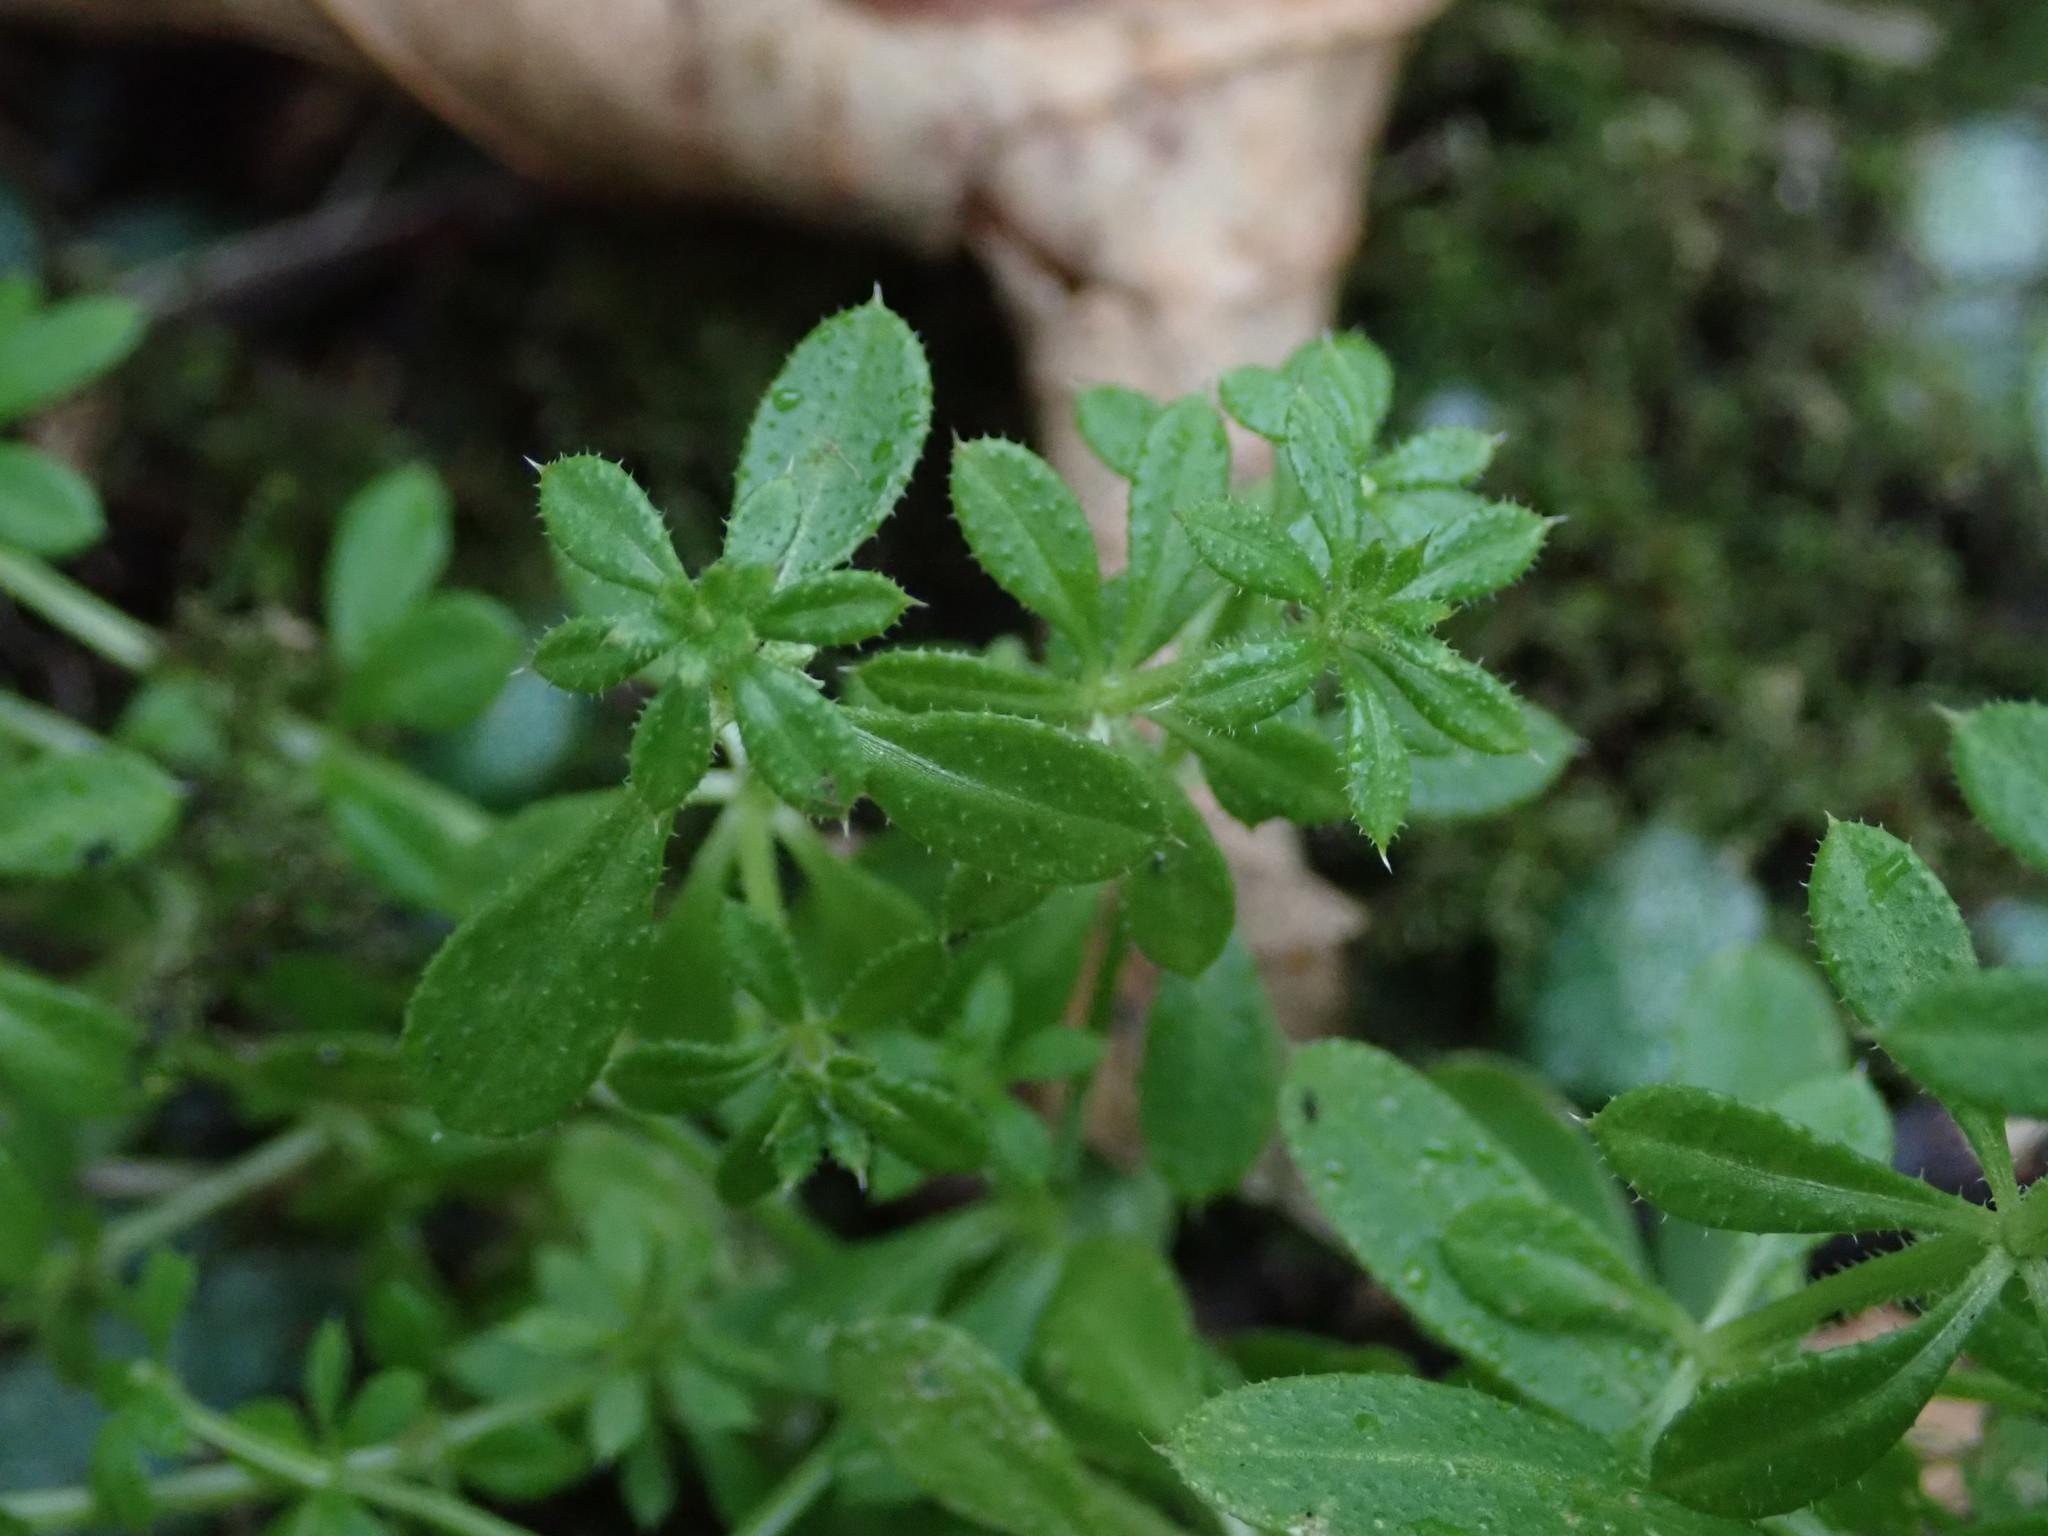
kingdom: Plantae
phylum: Tracheophyta
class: Magnoliopsida
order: Gentianales
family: Rubiaceae
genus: Galium
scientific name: Galium aparine
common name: Cleavers
